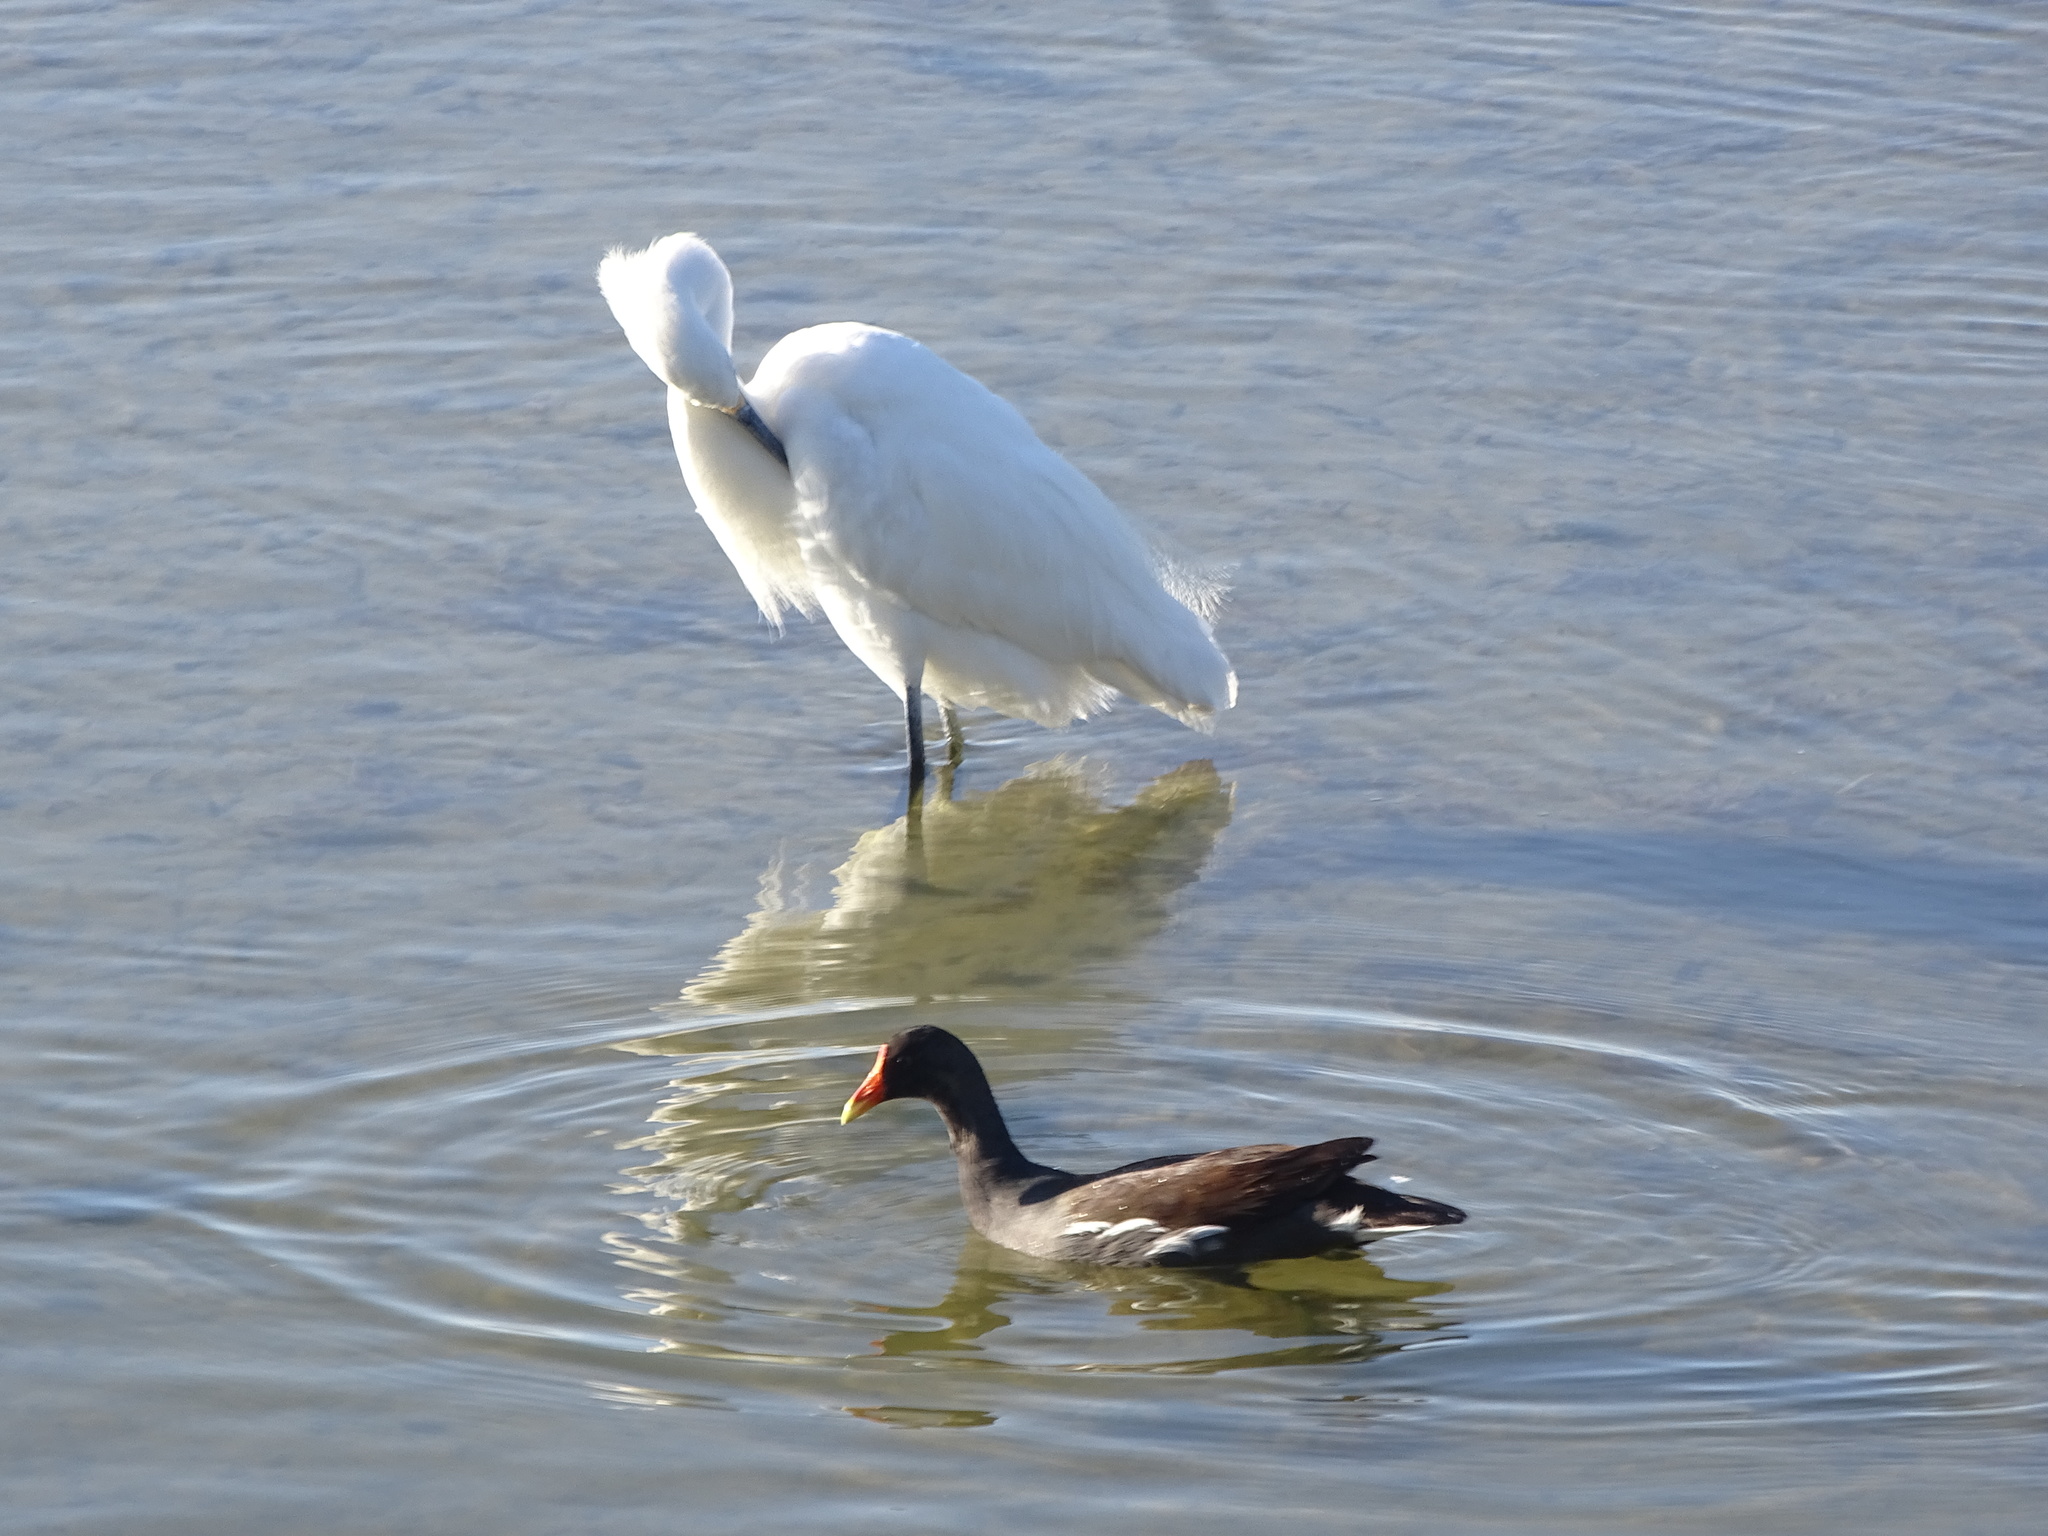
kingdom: Animalia
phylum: Chordata
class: Aves
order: Gruiformes
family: Rallidae
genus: Gallinula
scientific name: Gallinula chloropus
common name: Common moorhen
